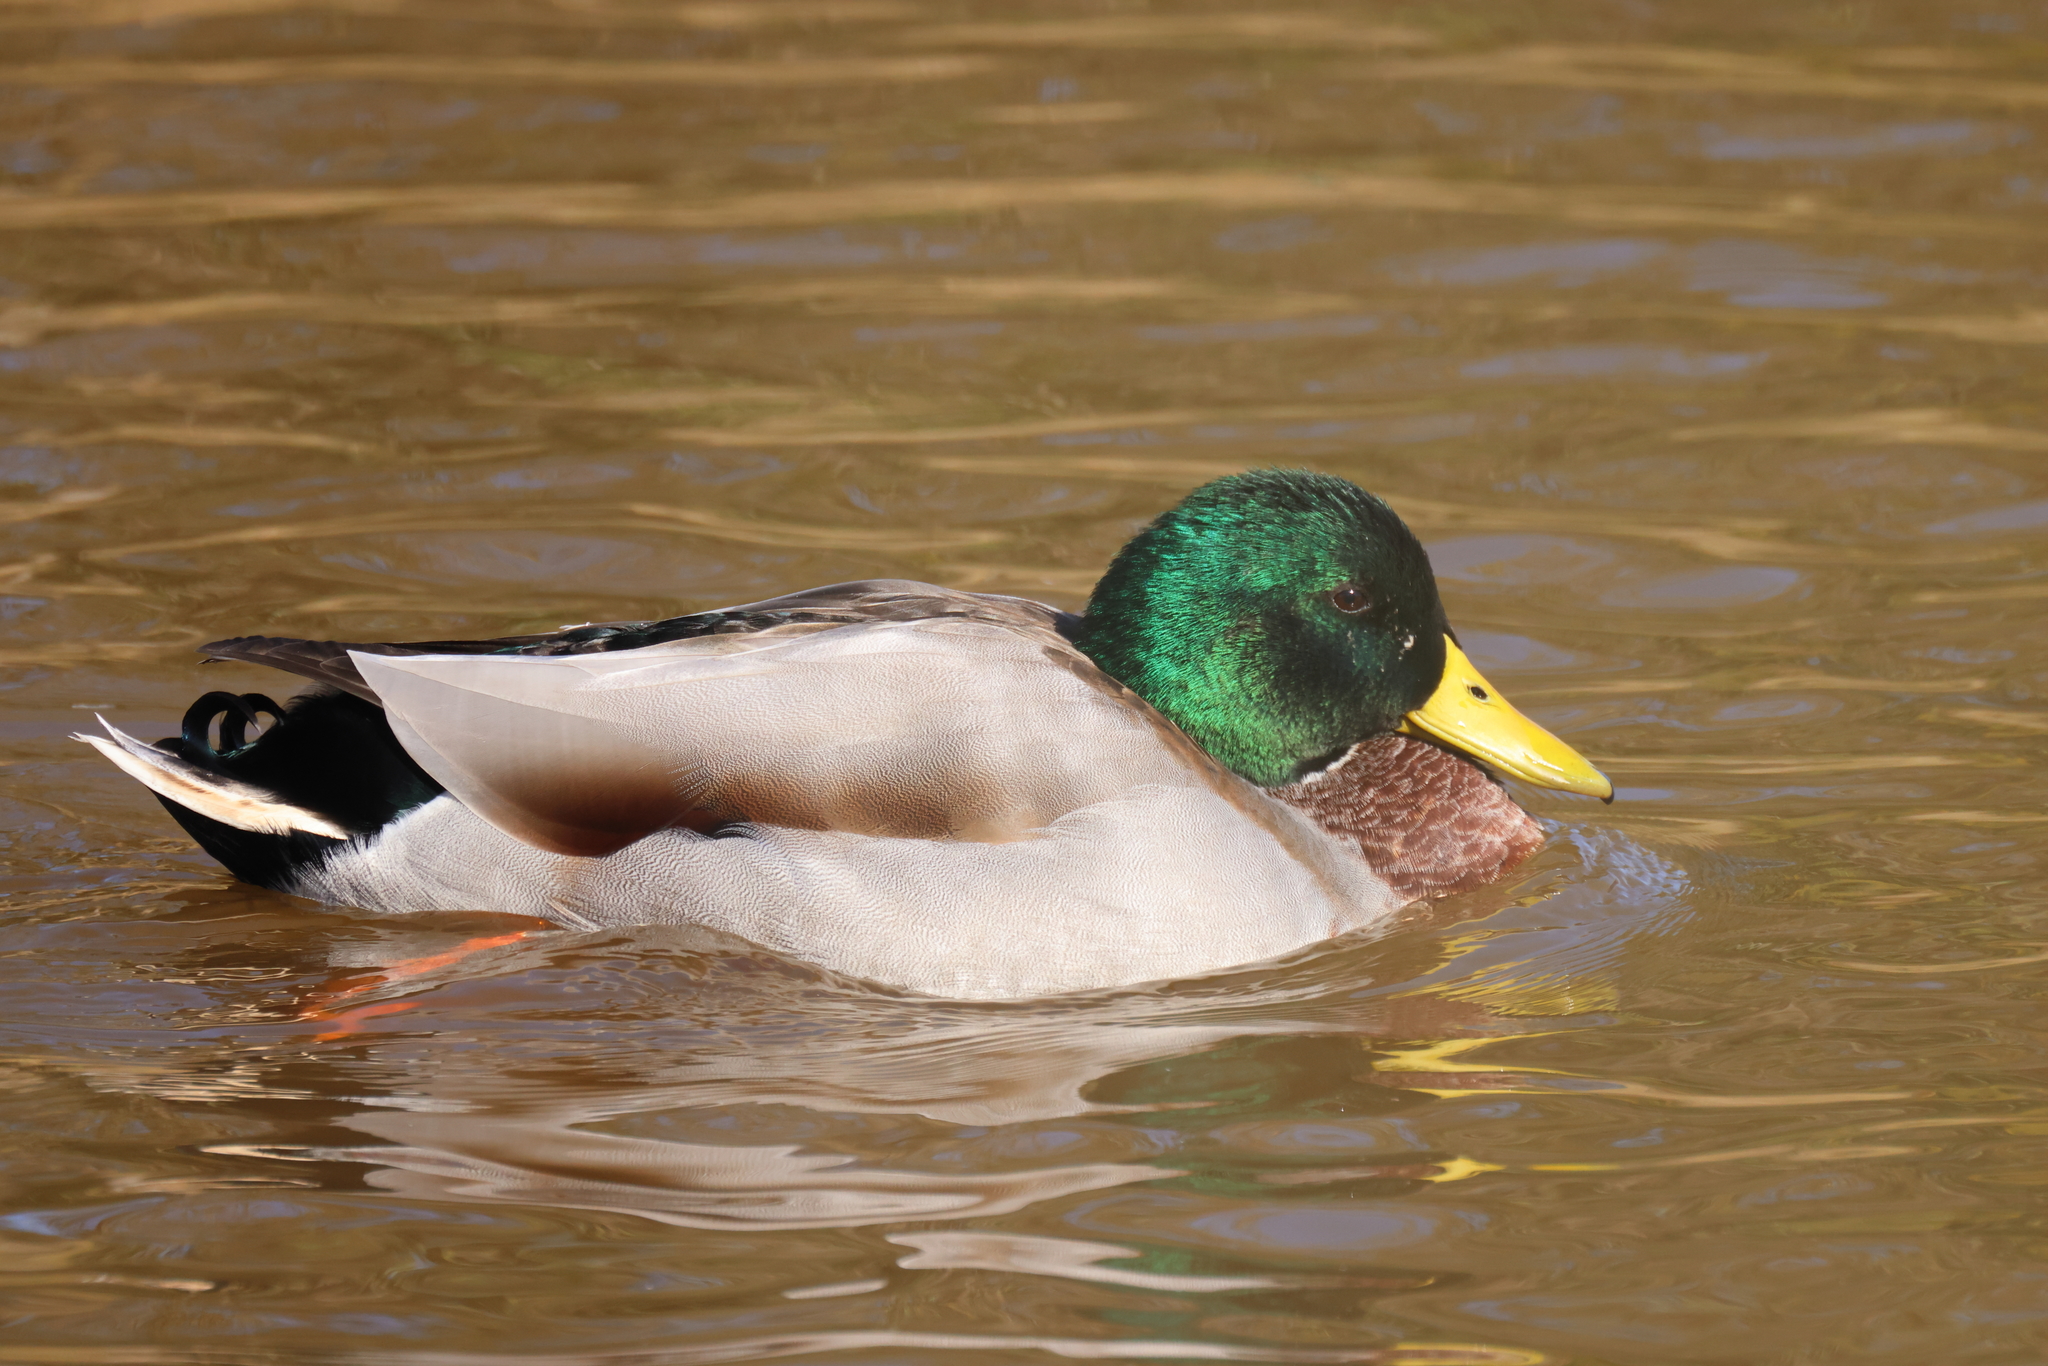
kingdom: Animalia
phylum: Chordata
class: Aves
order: Anseriformes
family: Anatidae
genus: Anas
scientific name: Anas platyrhynchos
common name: Mallard
